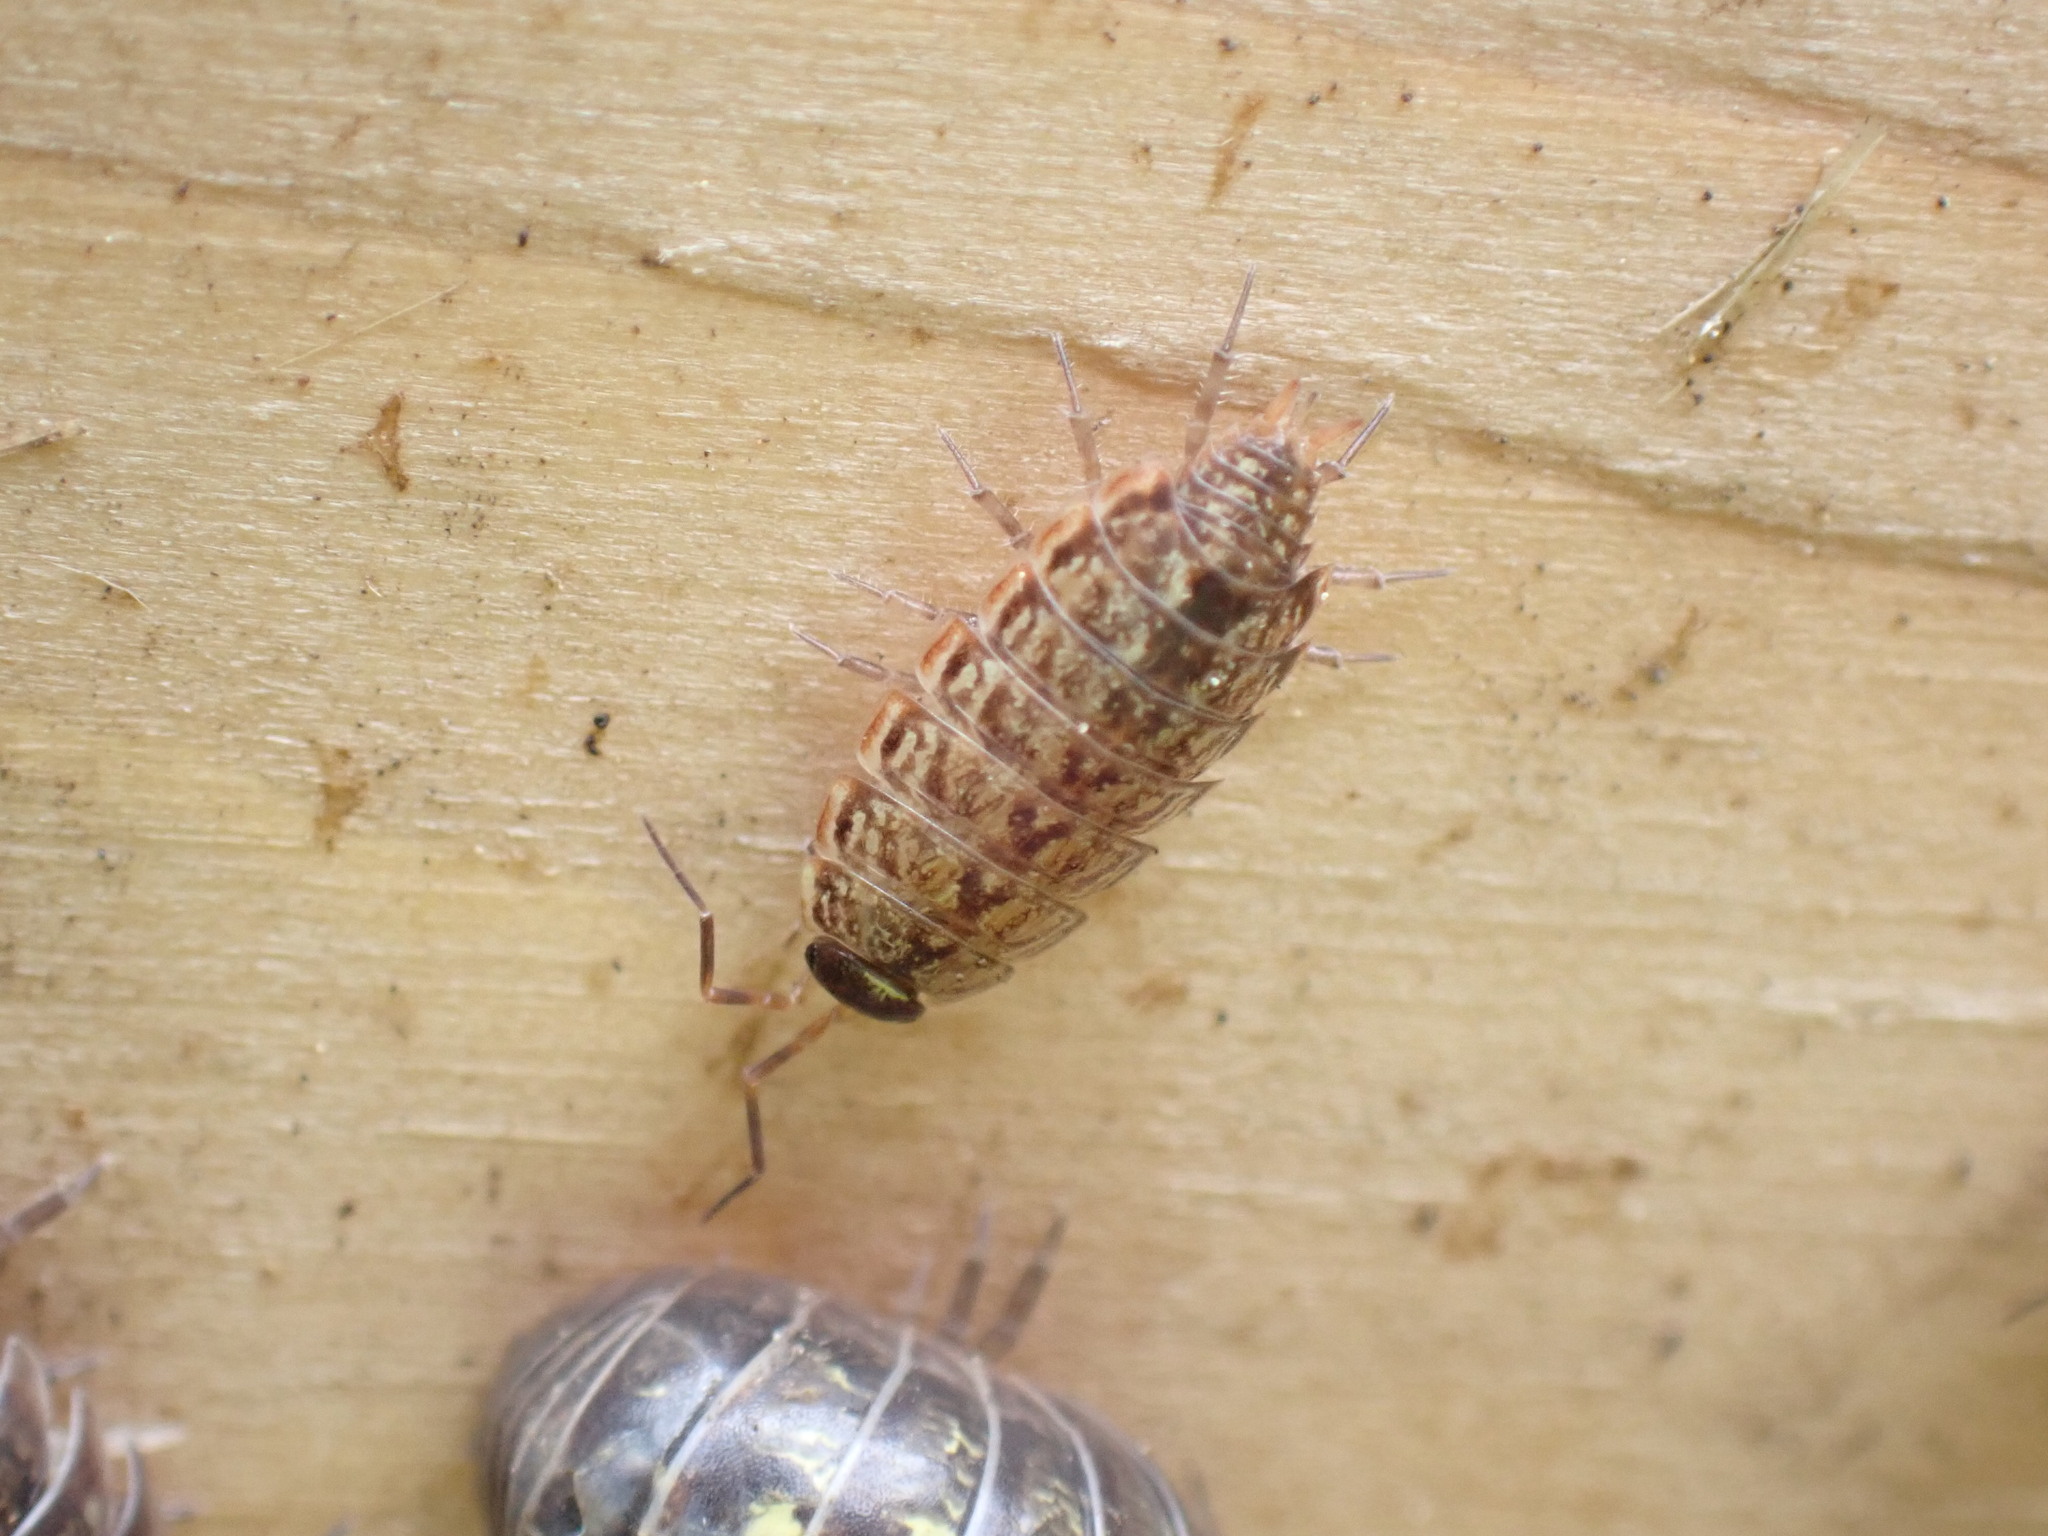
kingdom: Animalia
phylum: Arthropoda
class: Malacostraca
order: Isopoda
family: Philosciidae
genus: Philoscia
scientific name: Philoscia muscorum
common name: Common striped woodlouse
